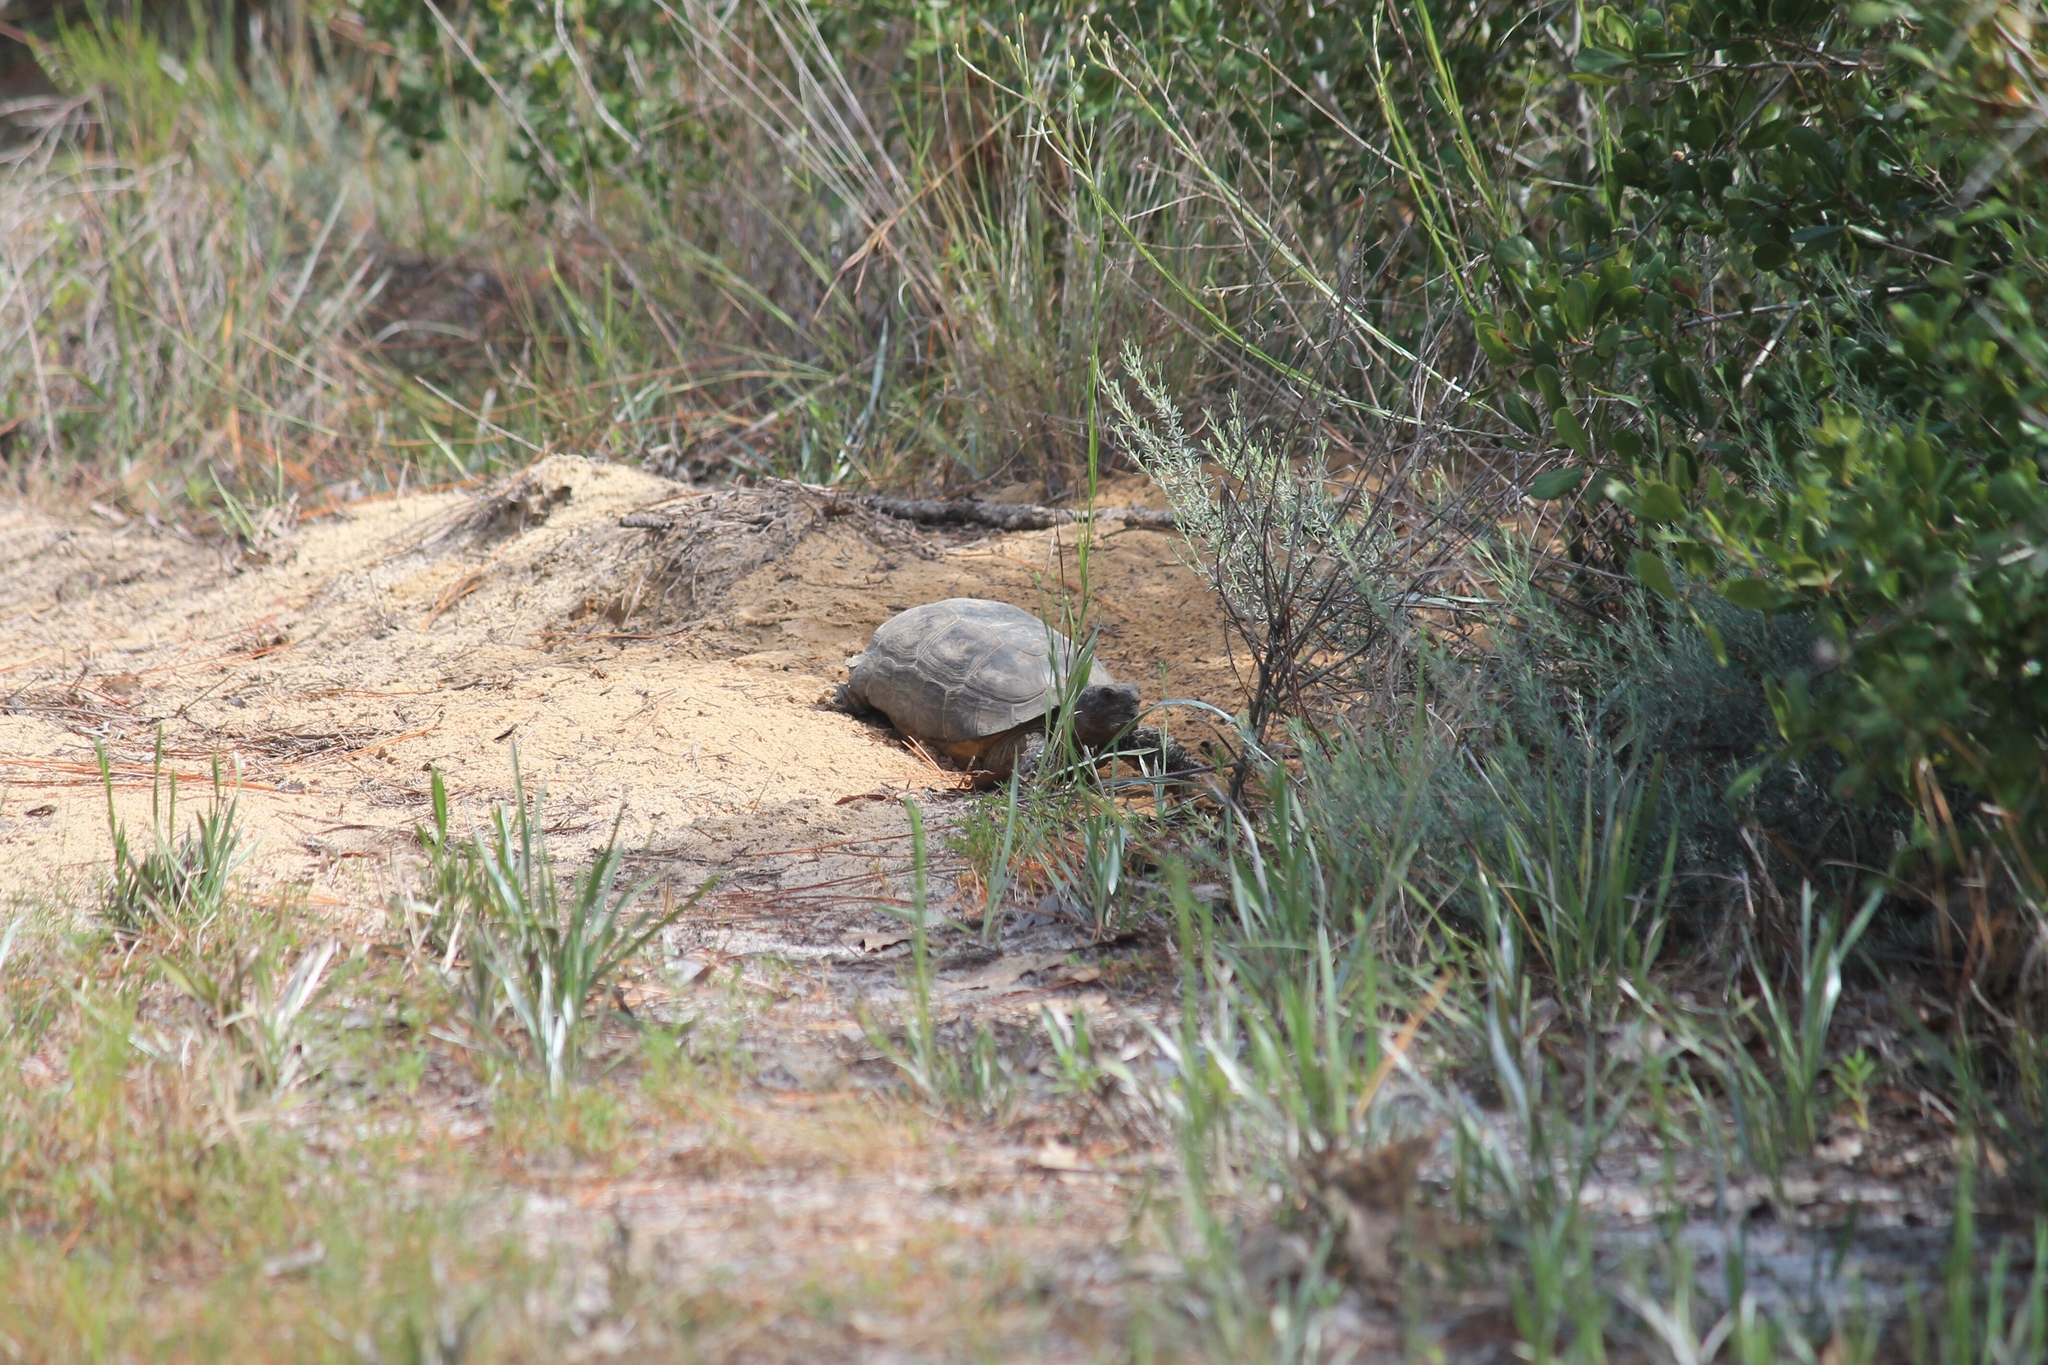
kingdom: Animalia
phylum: Chordata
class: Testudines
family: Testudinidae
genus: Gopherus
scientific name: Gopherus polyphemus
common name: Florida gopher tortoise
